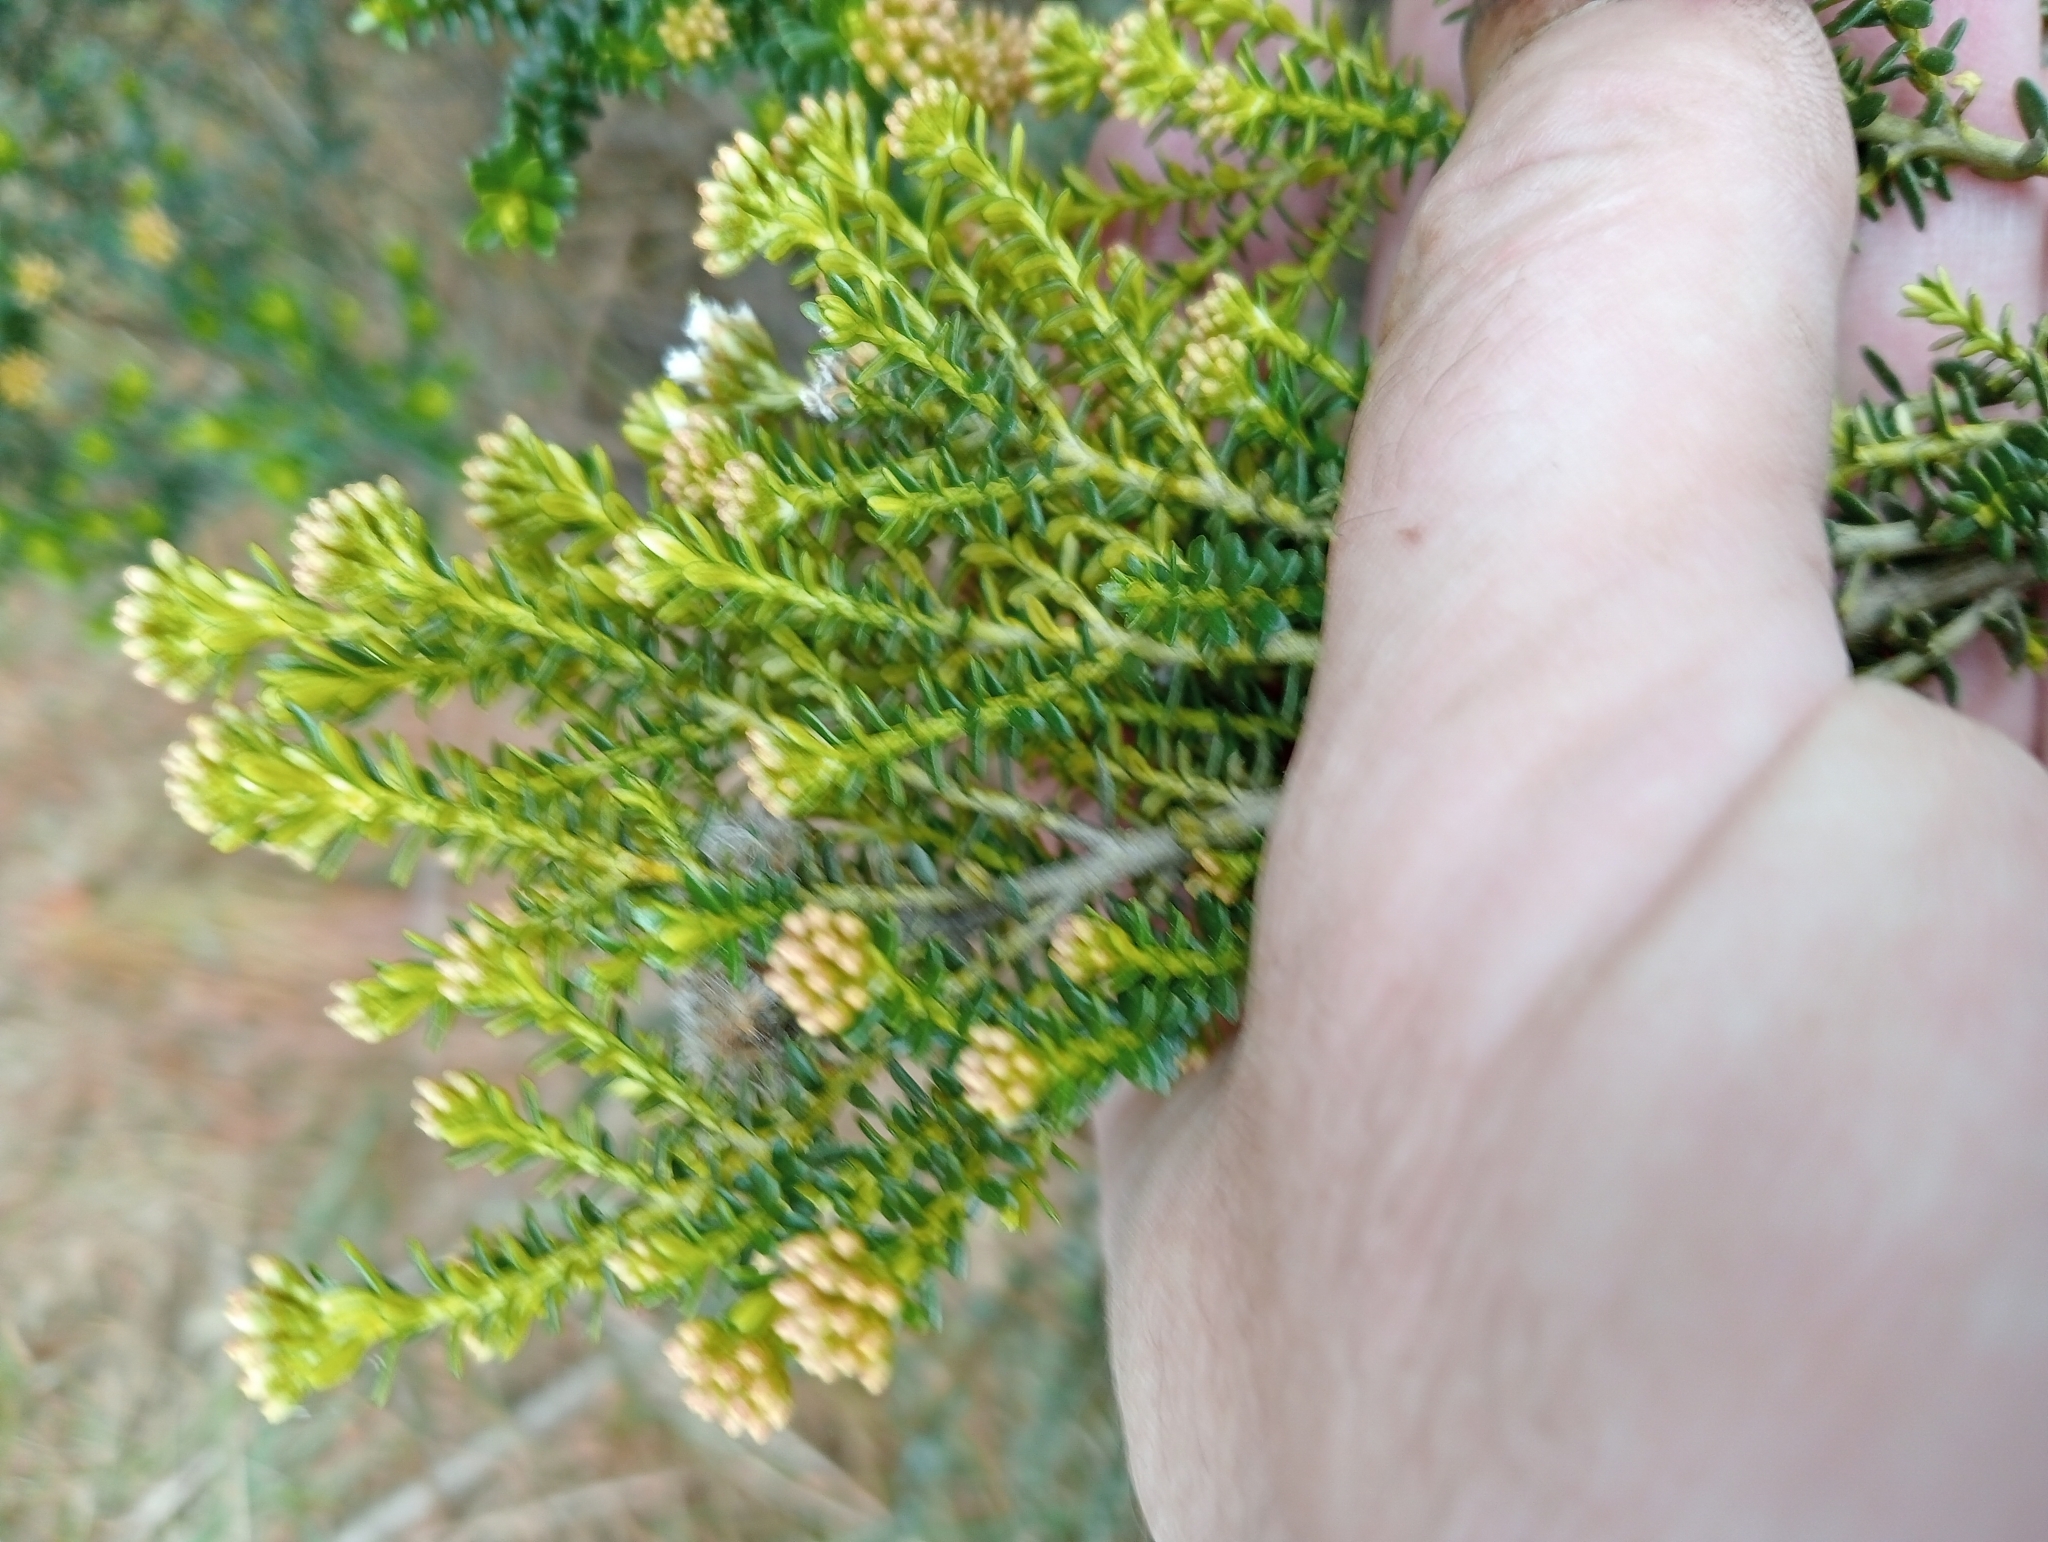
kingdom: Plantae
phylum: Tracheophyta
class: Magnoliopsida
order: Asterales
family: Asteraceae
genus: Ozothamnus
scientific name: Ozothamnus leptophyllus
